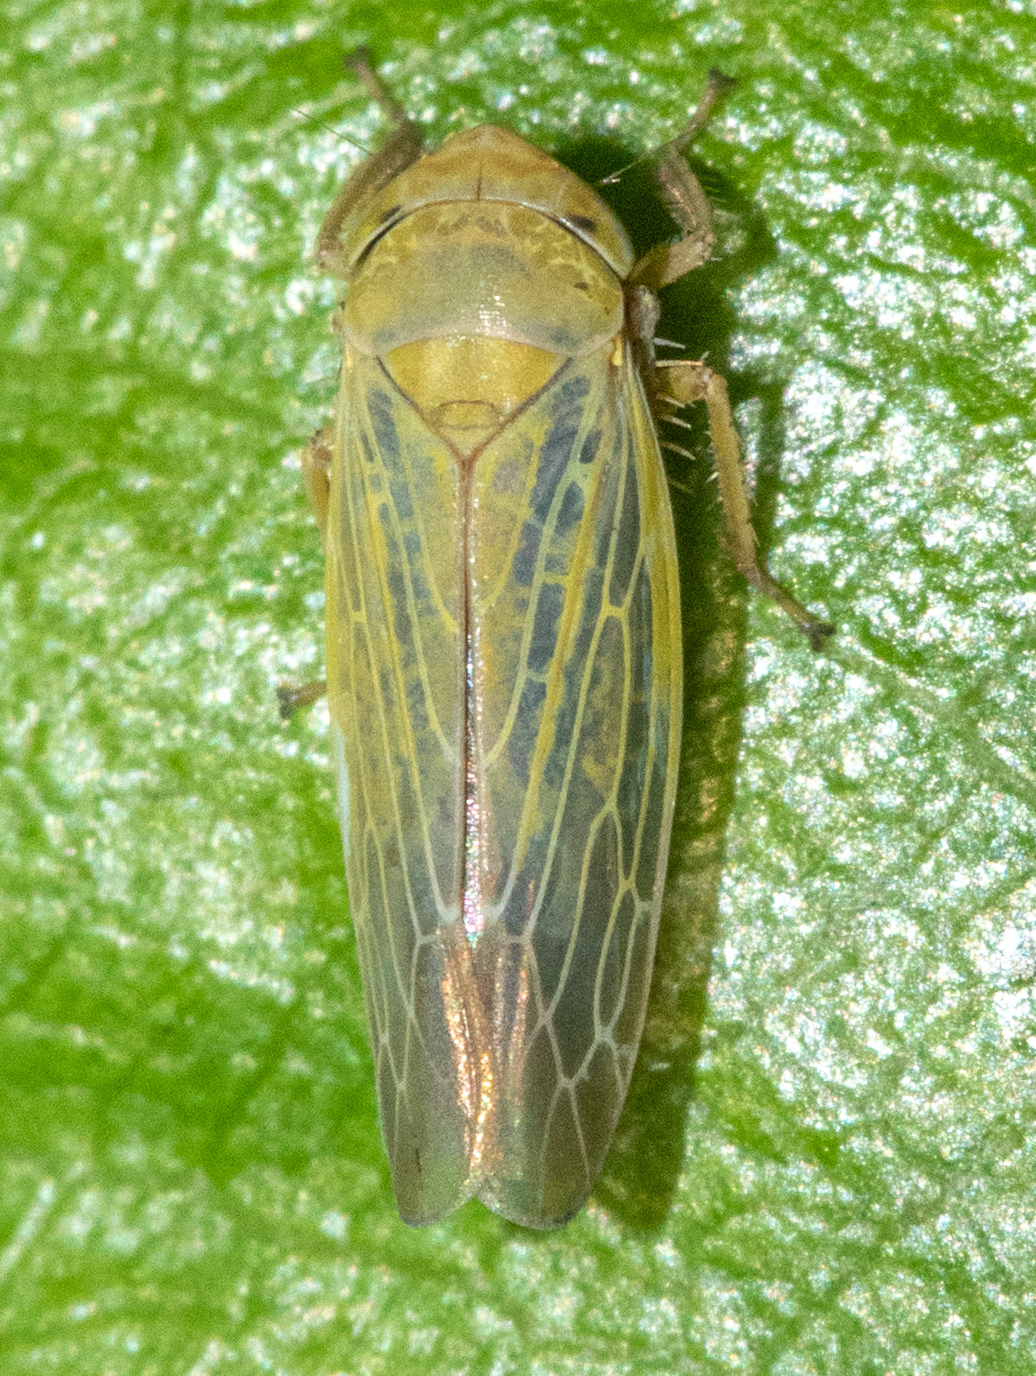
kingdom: Animalia
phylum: Arthropoda
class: Insecta
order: Hemiptera
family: Cicadellidae
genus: Thamnotettix
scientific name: Thamnotettix zelleri
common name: Leafhopper
